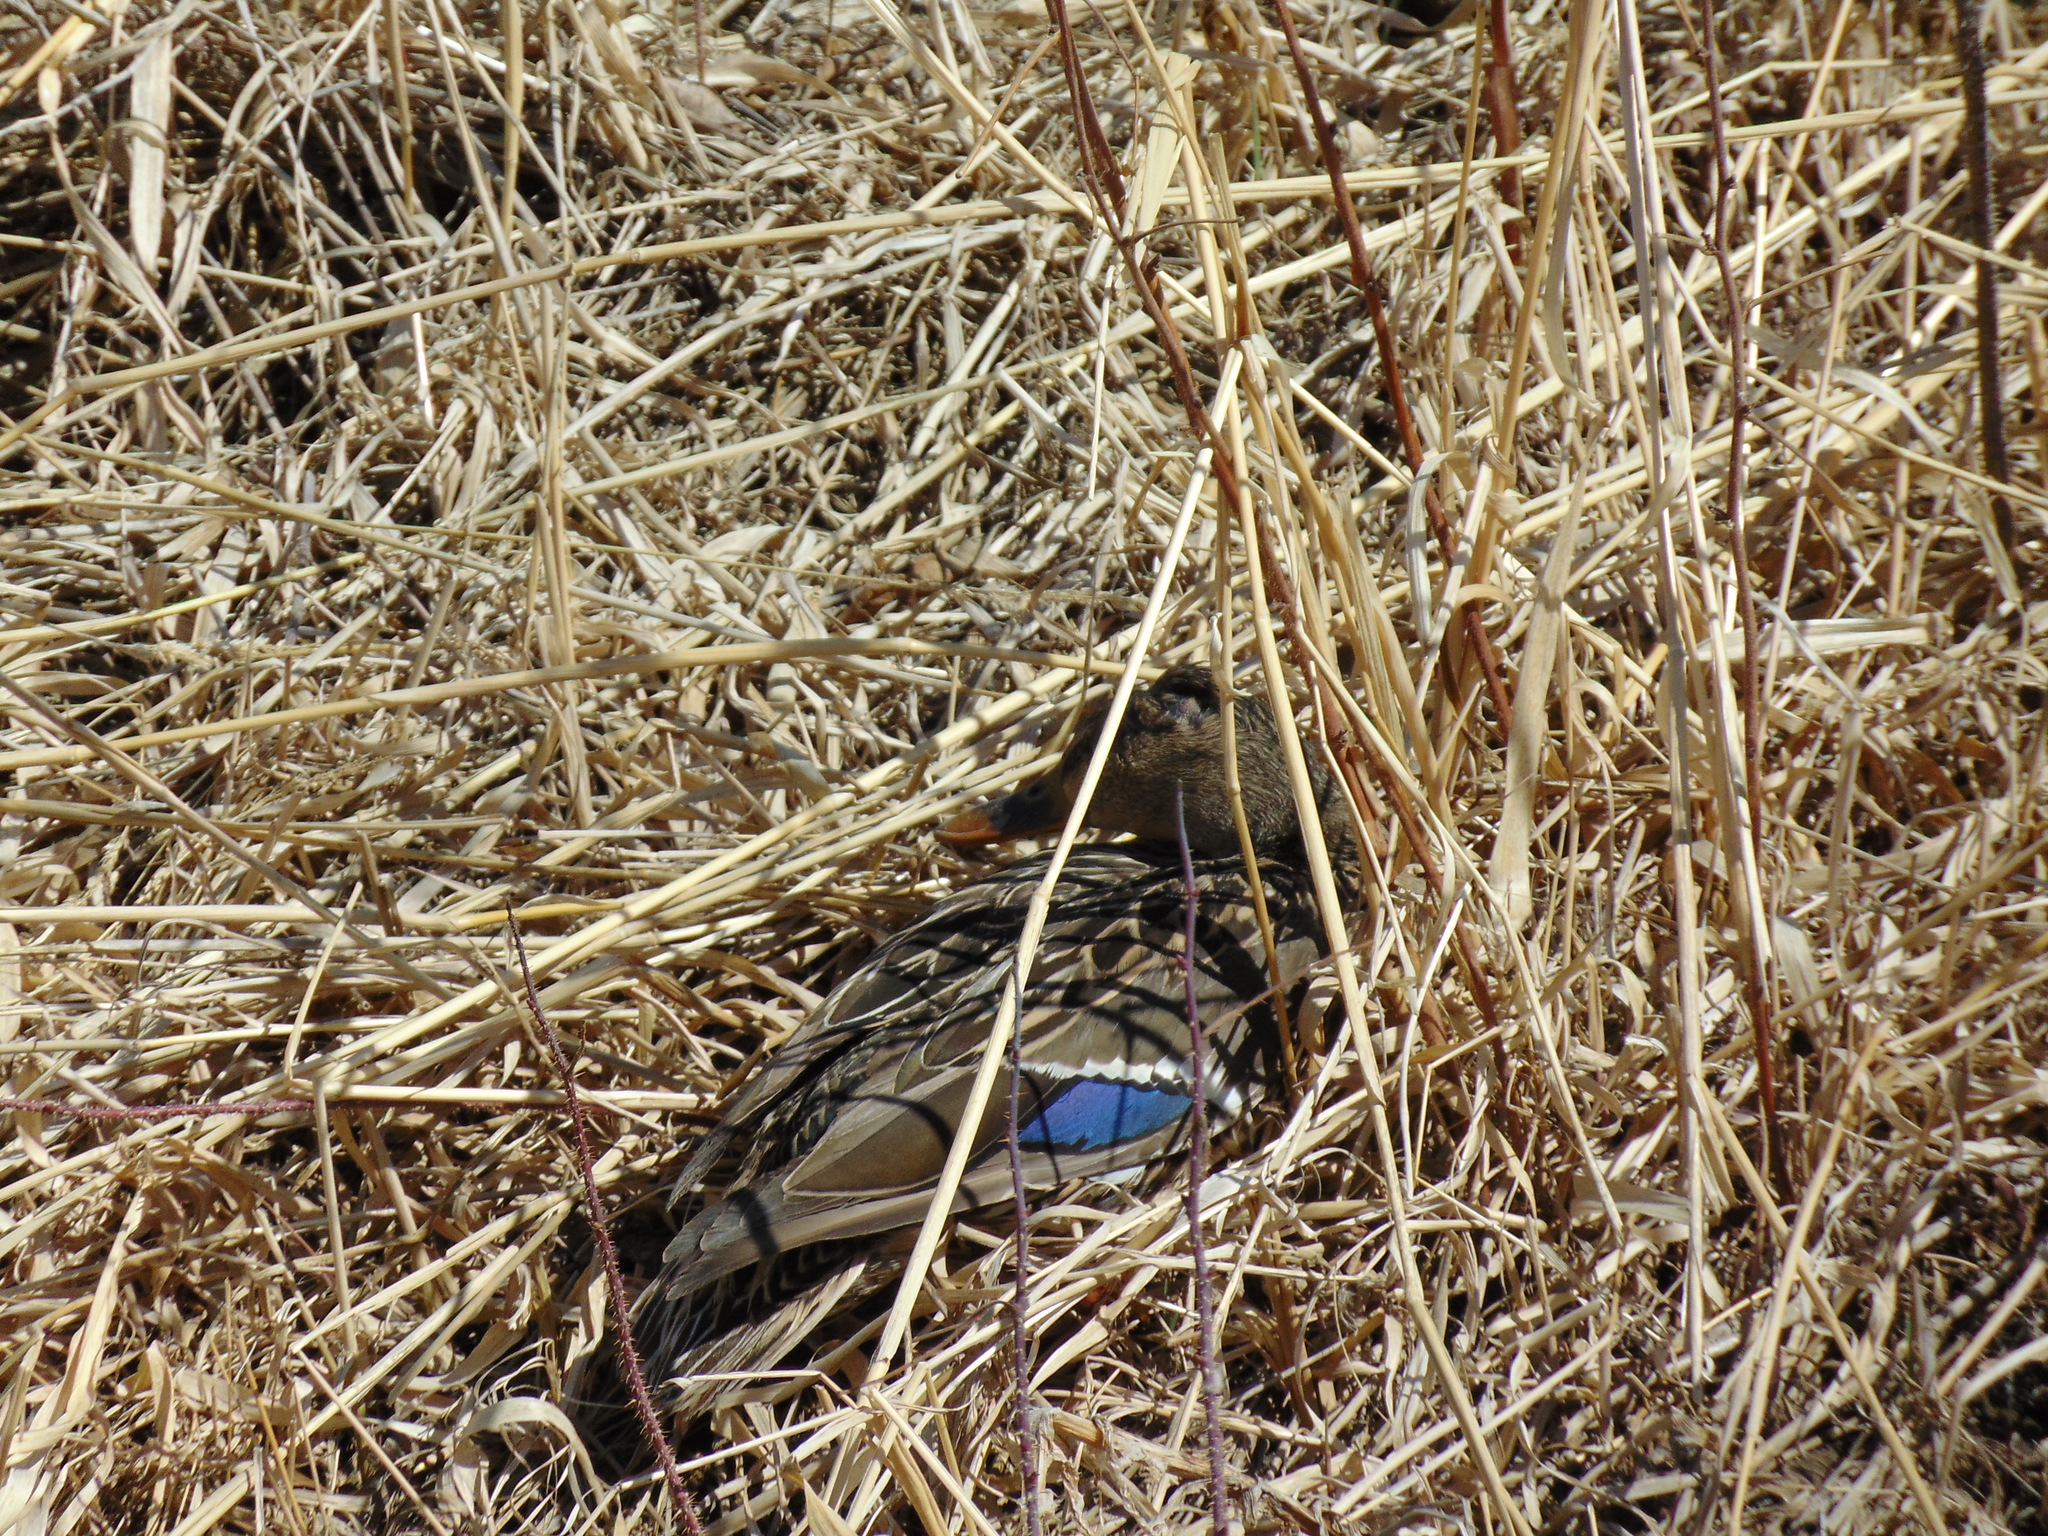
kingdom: Animalia
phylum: Chordata
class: Aves
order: Anseriformes
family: Anatidae
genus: Anas
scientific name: Anas platyrhynchos
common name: Mallard
